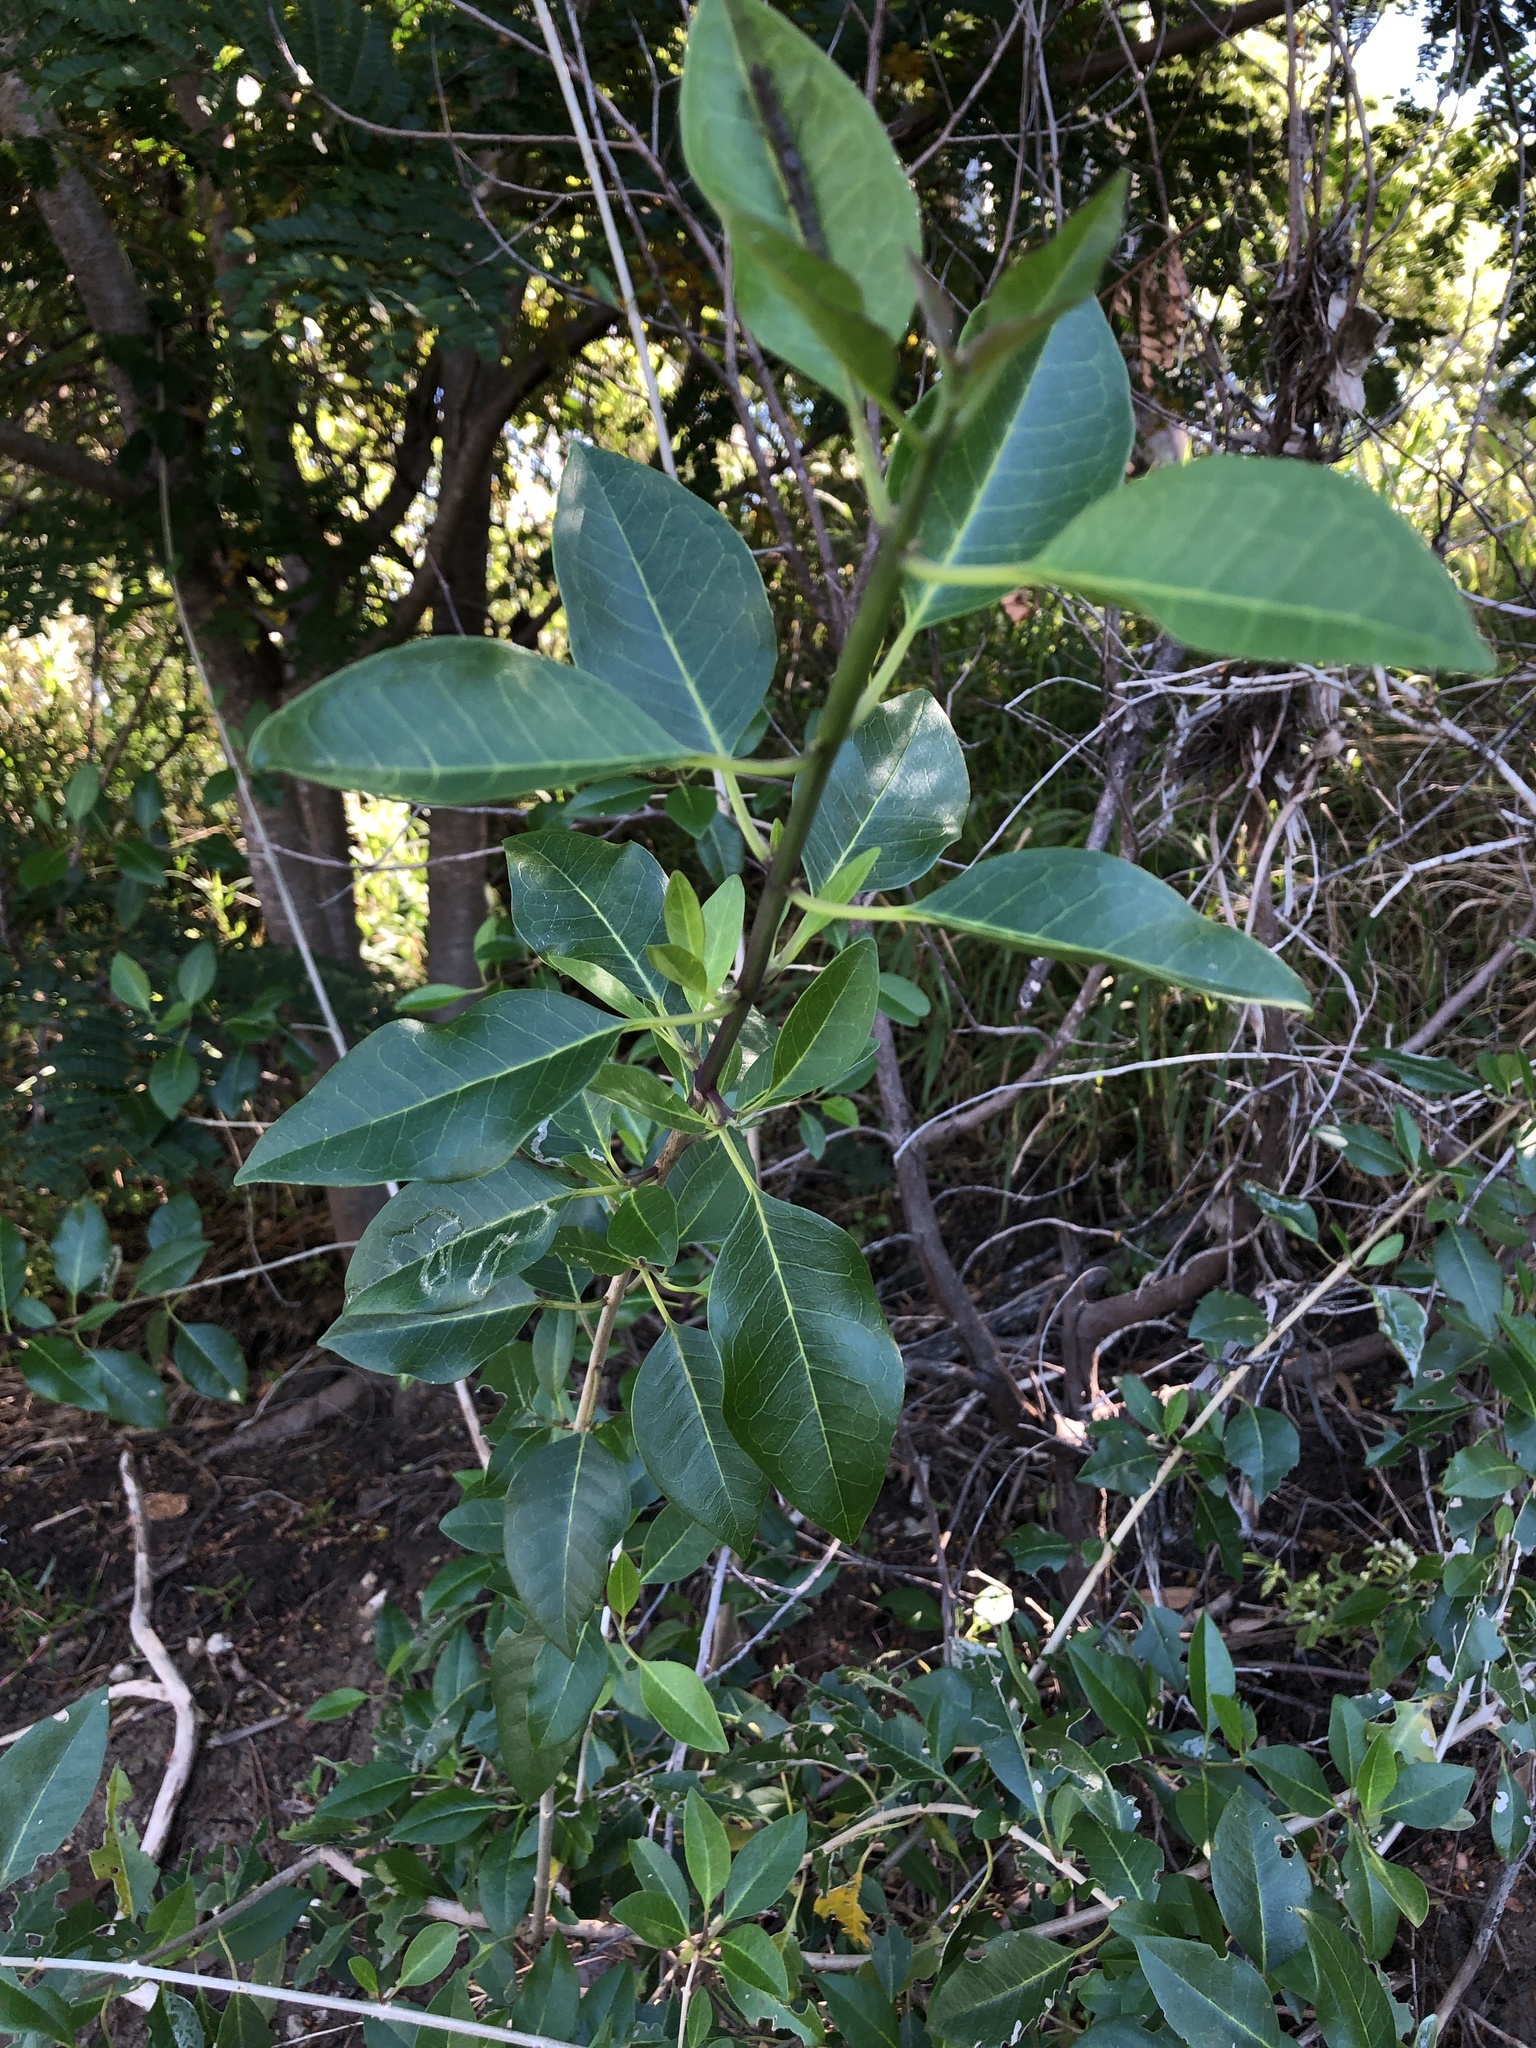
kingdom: Plantae
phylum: Tracheophyta
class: Magnoliopsida
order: Lamiales
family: Lamiaceae
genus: Volkameria
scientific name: Volkameria inermis
